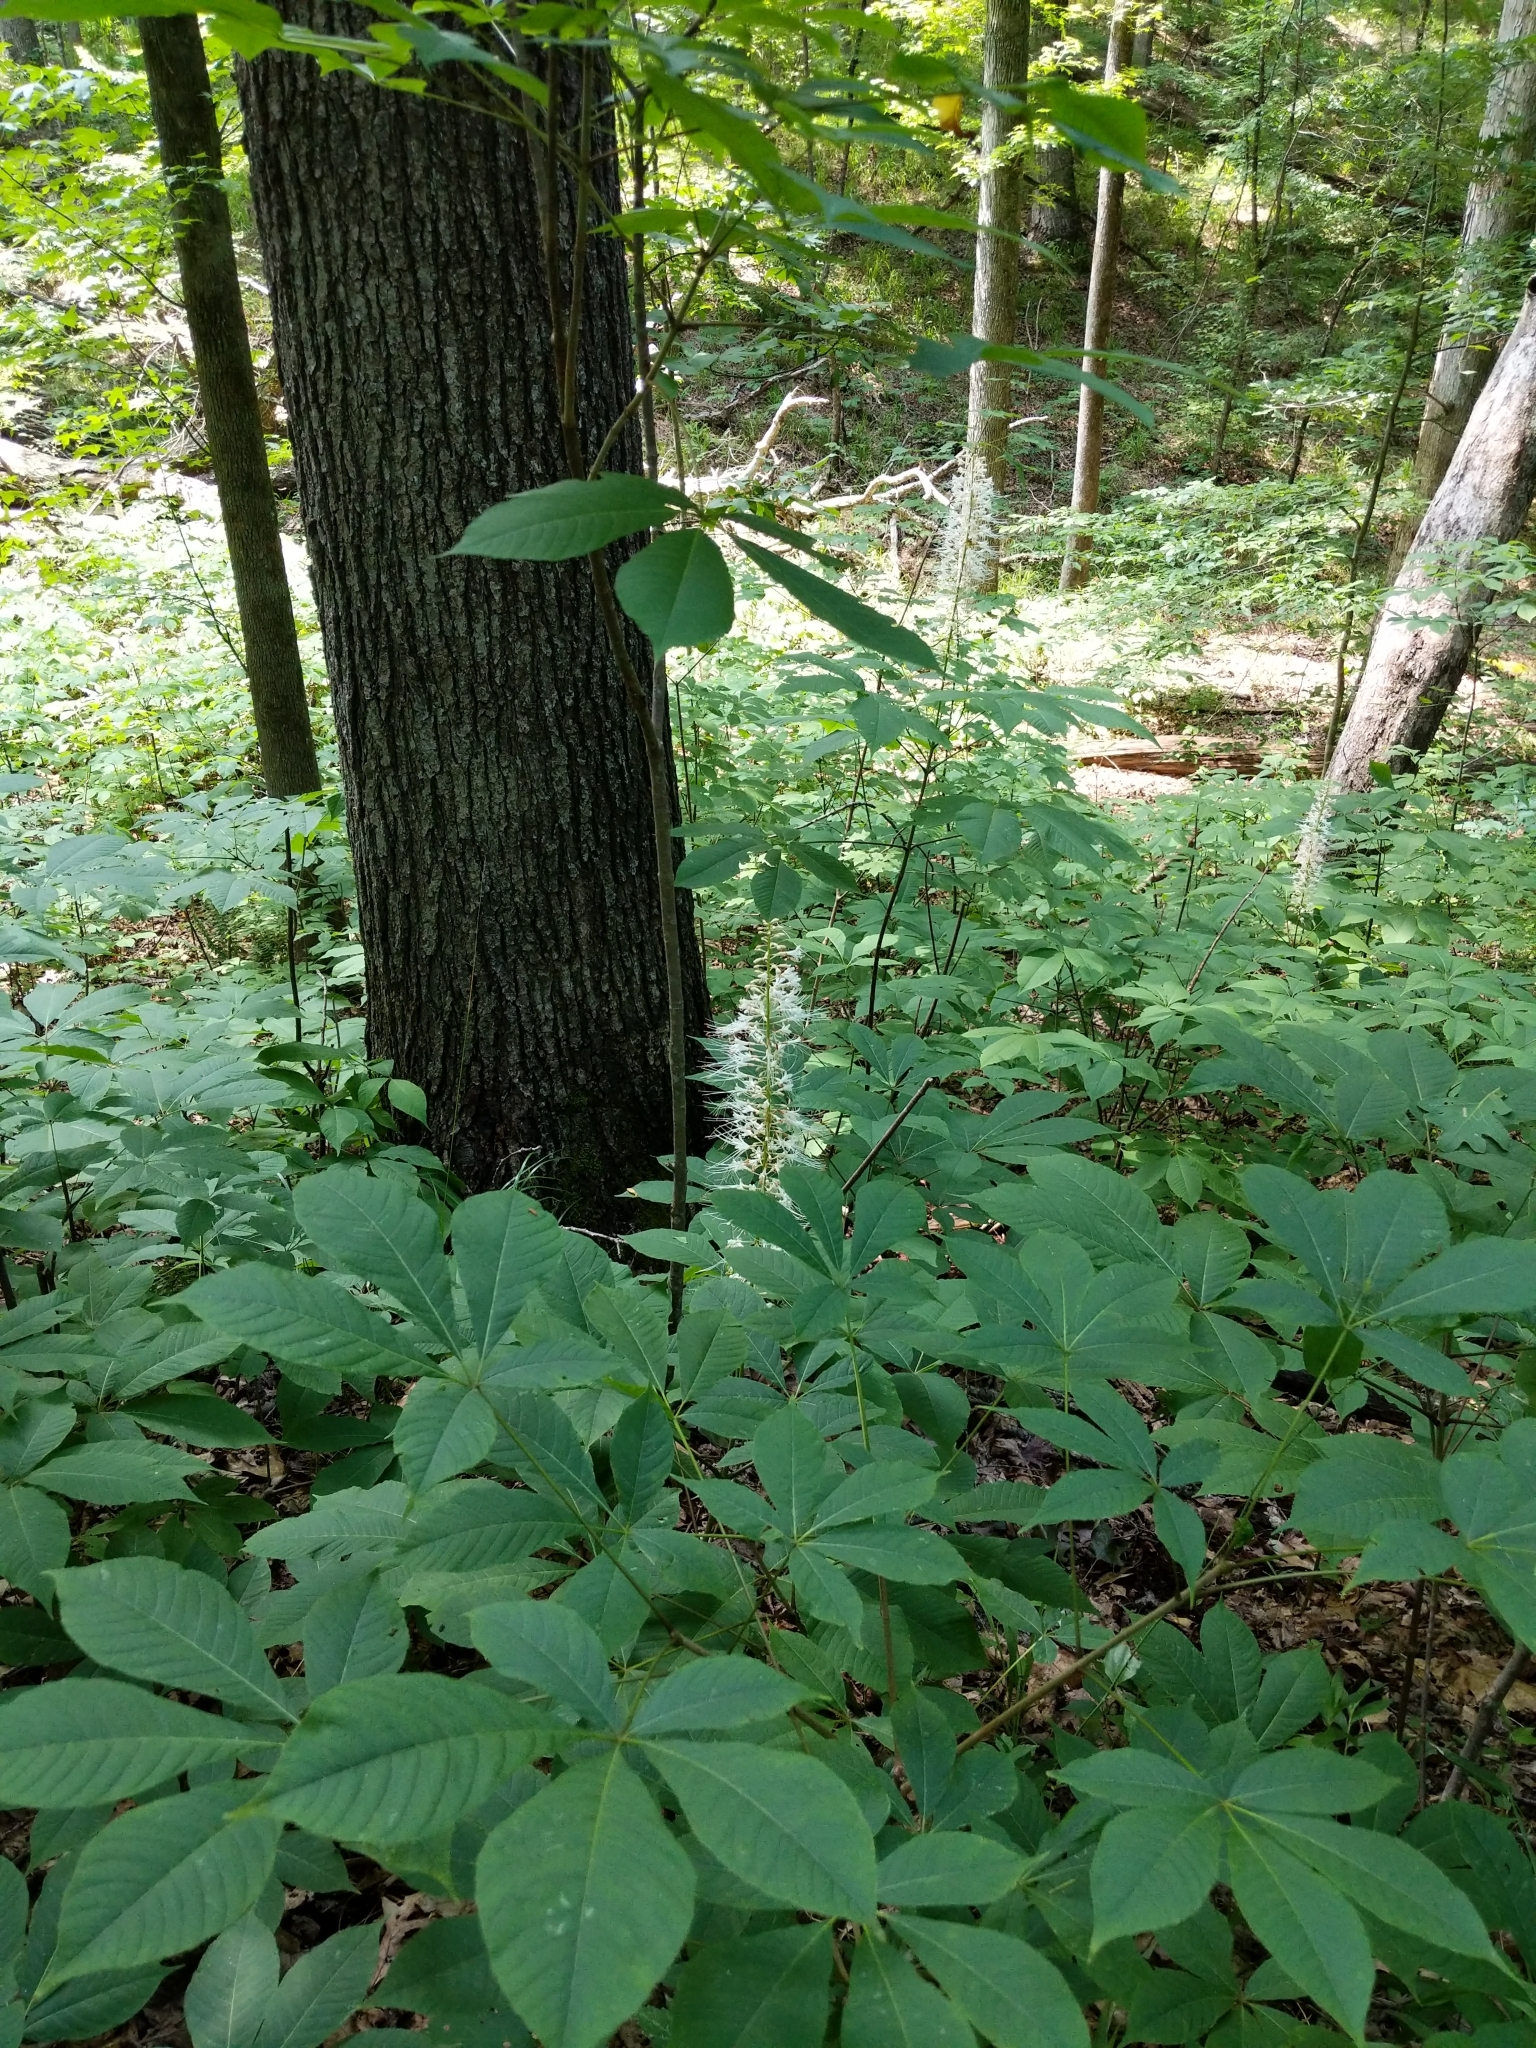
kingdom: Plantae
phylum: Tracheophyta
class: Magnoliopsida
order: Sapindales
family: Sapindaceae
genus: Aesculus
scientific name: Aesculus parviflora
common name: Bottlebrush buckeye
